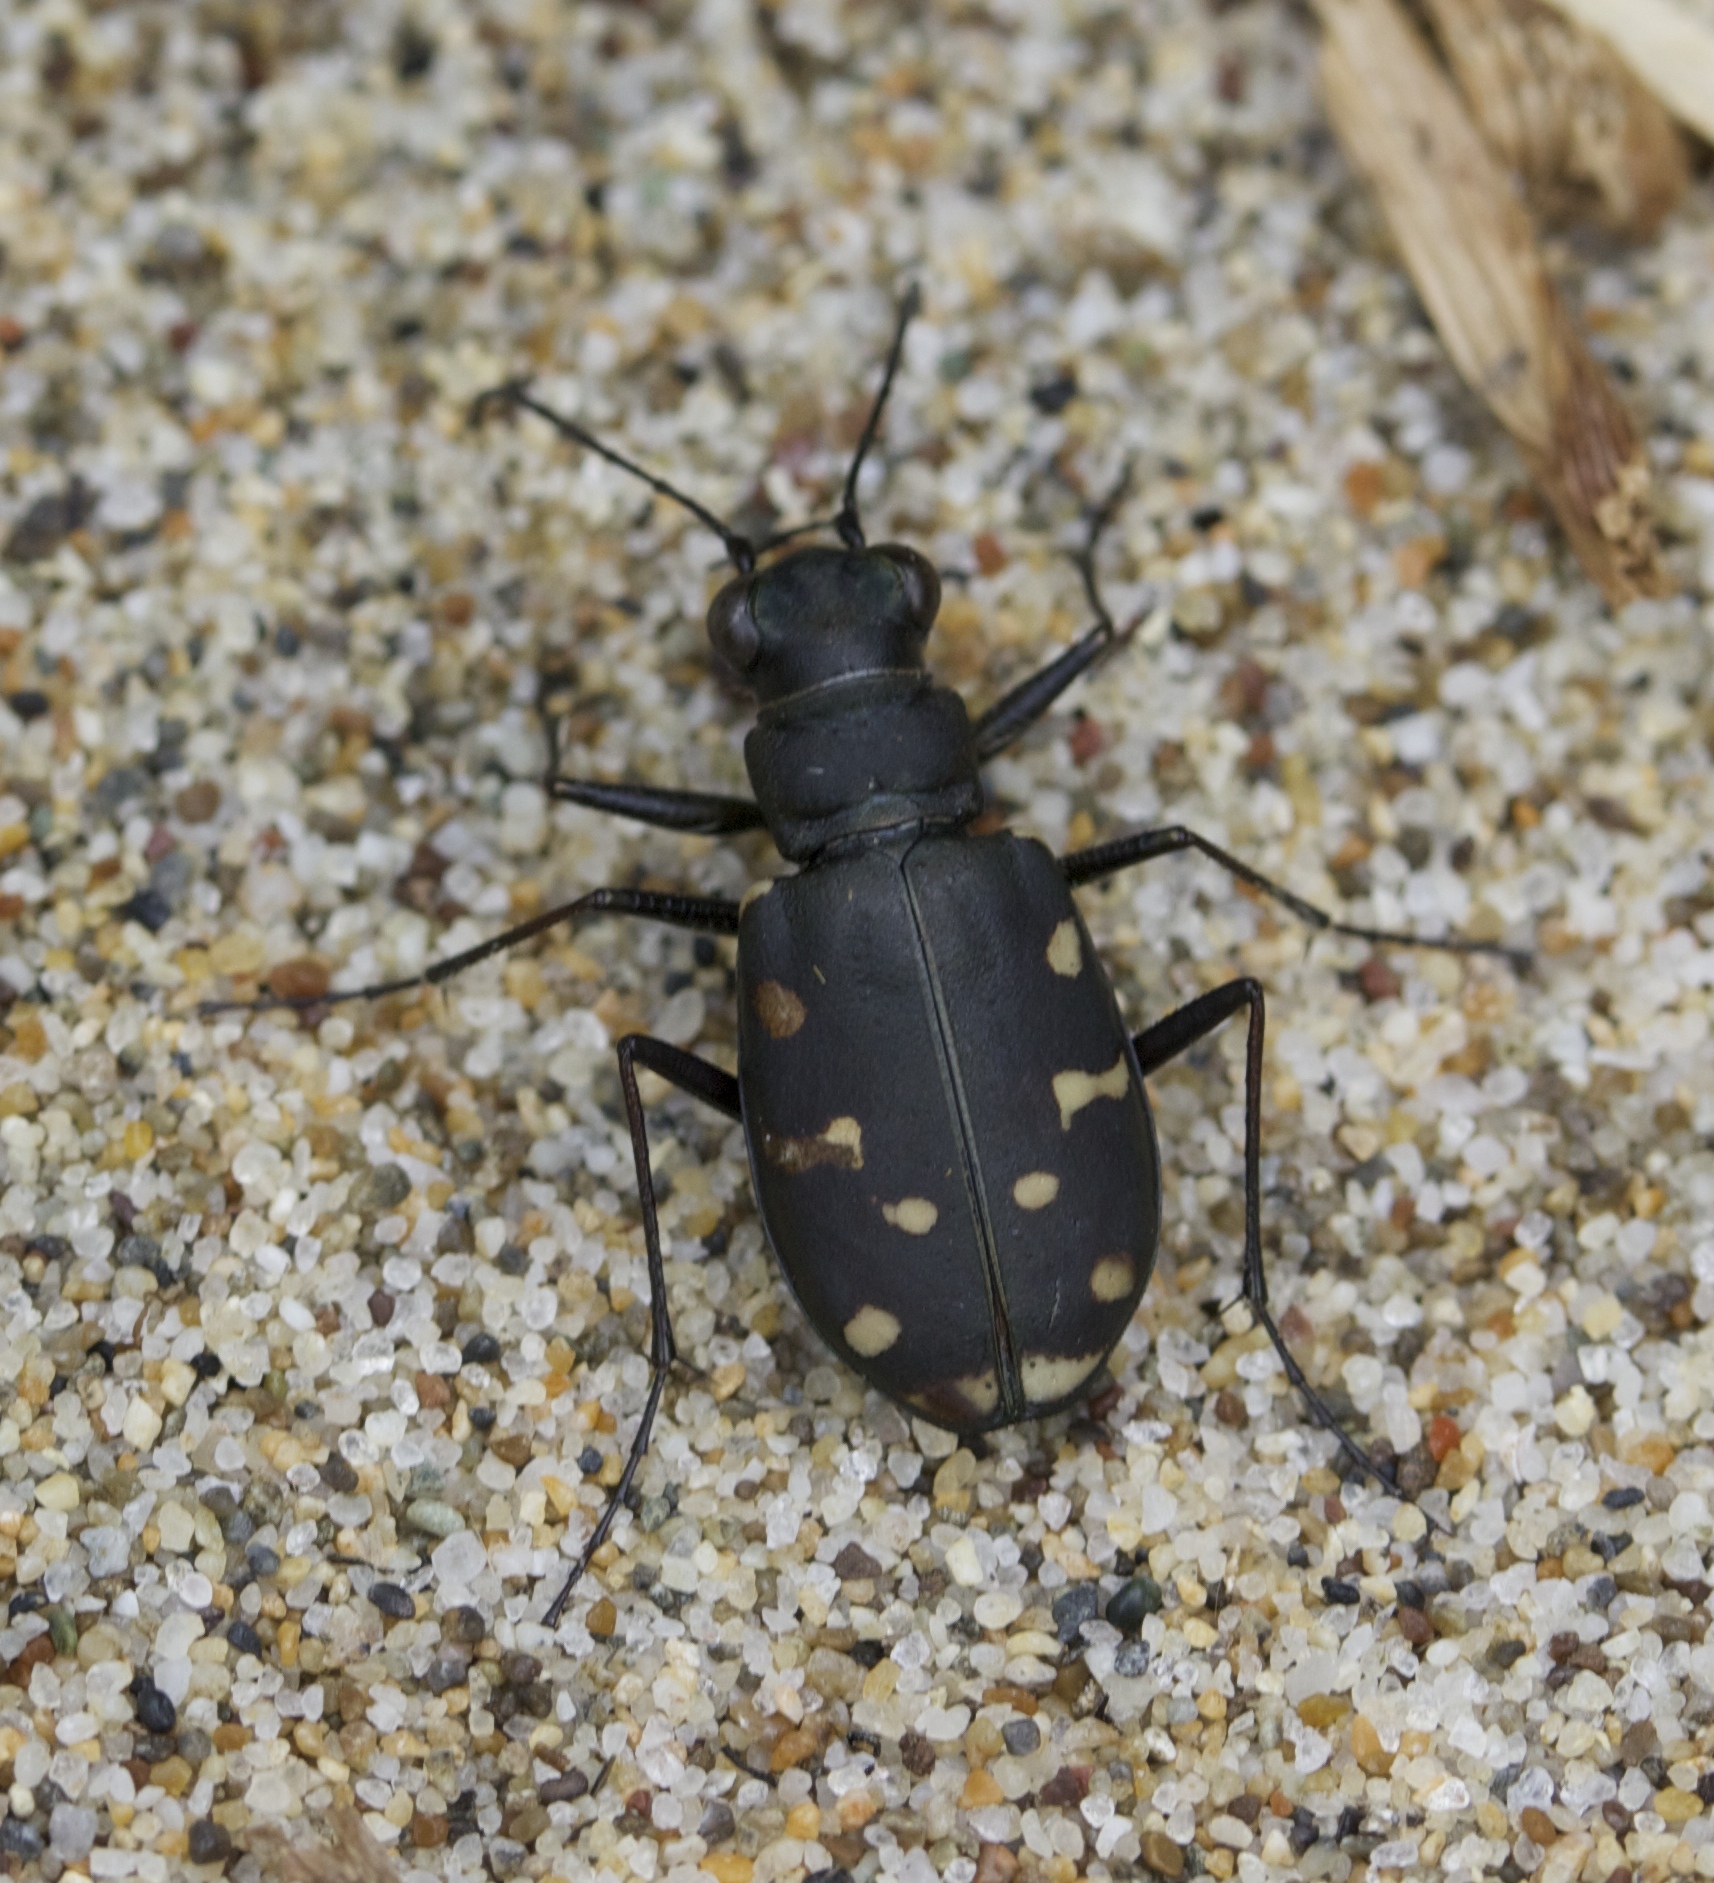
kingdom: Animalia
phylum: Arthropoda
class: Insecta
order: Coleoptera
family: Carabidae
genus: Cicindela
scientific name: Cicindela oregona
